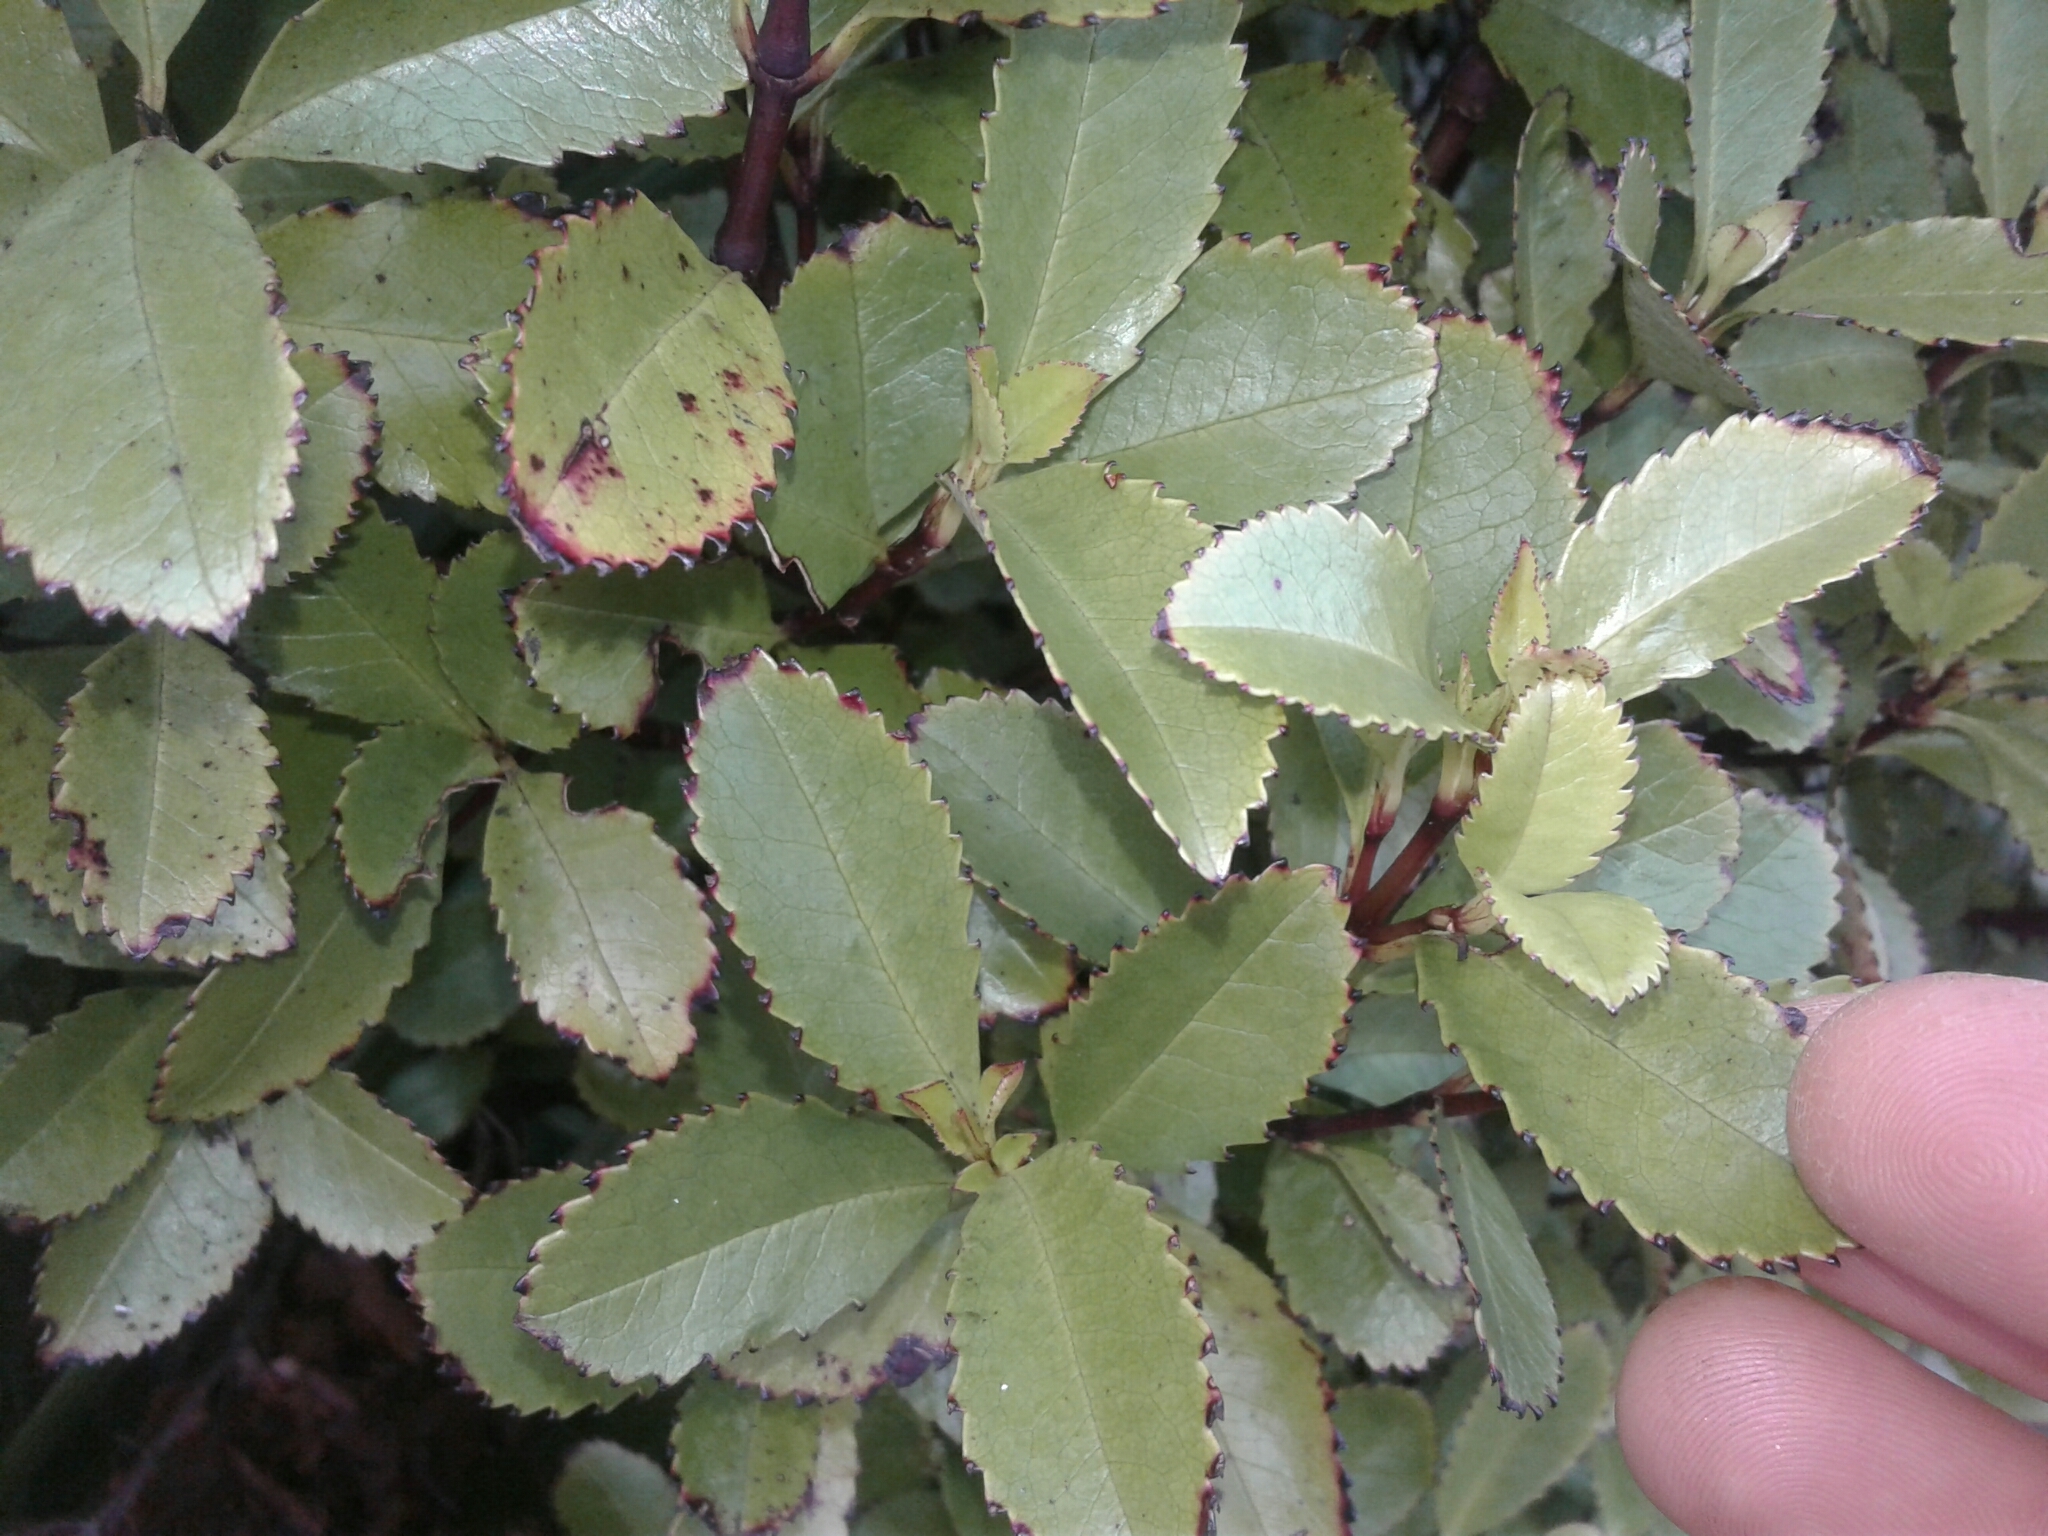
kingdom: Plantae
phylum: Tracheophyta
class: Magnoliopsida
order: Chloranthales
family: Chloranthaceae
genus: Ascarina
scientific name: Ascarina lucida
